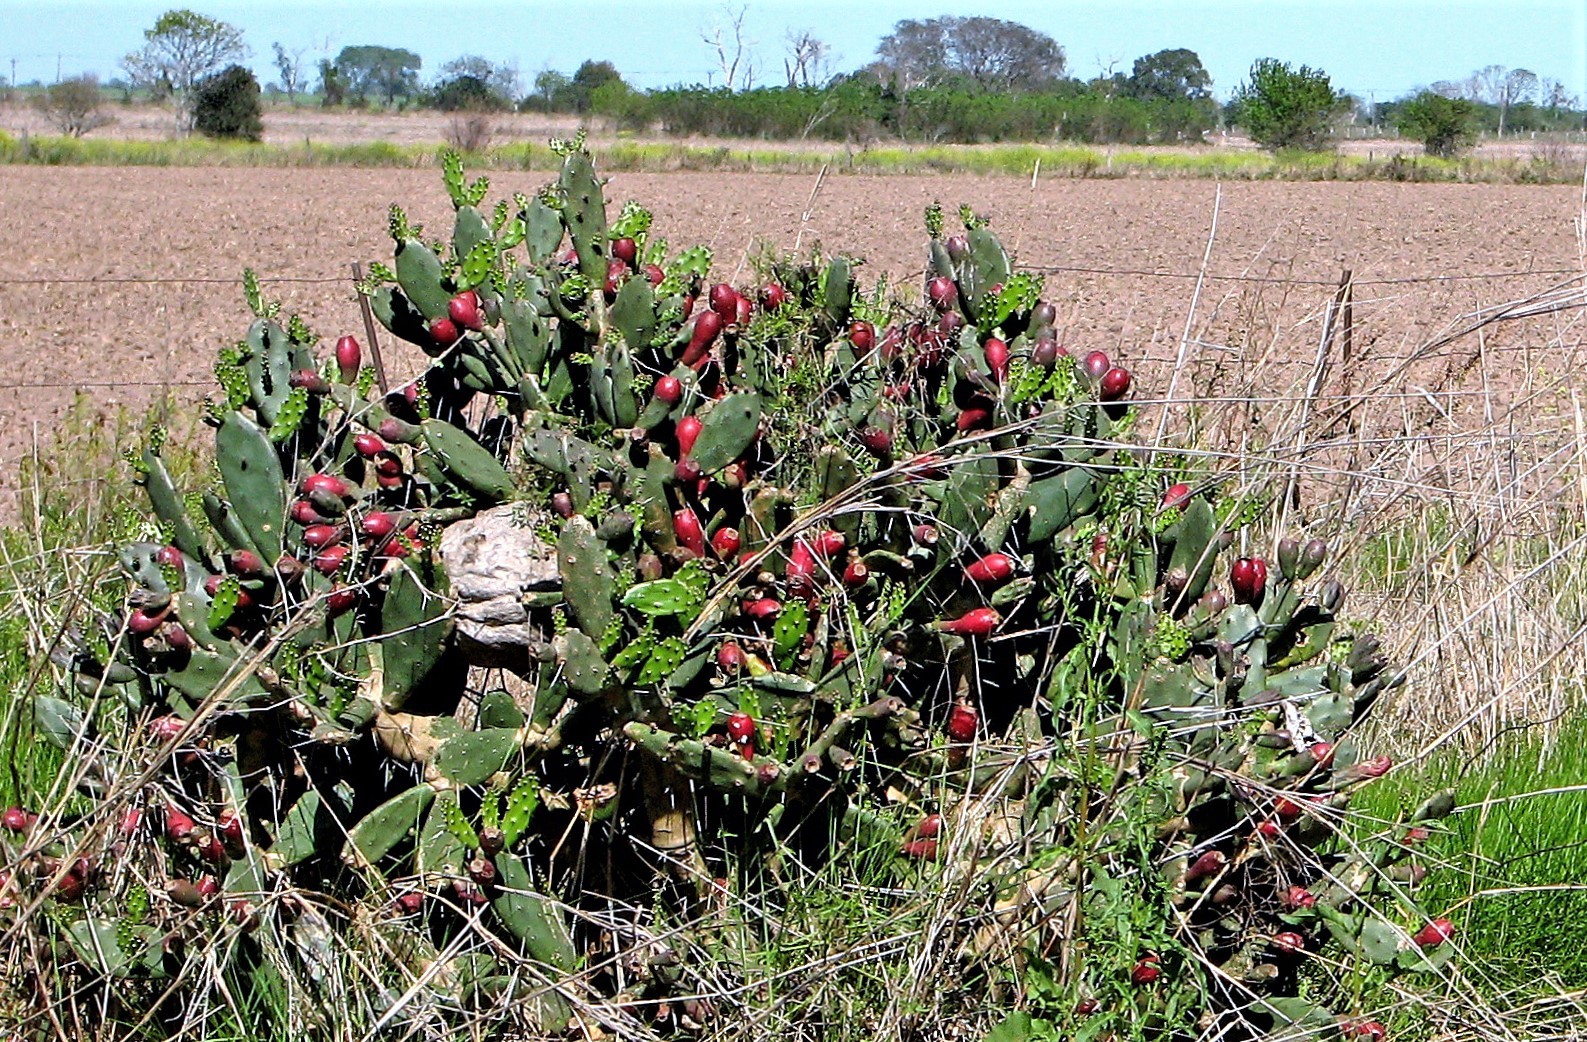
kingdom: Plantae
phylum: Tracheophyta
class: Magnoliopsida
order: Caryophyllales
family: Cactaceae
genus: Opuntia
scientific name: Opuntia elata
